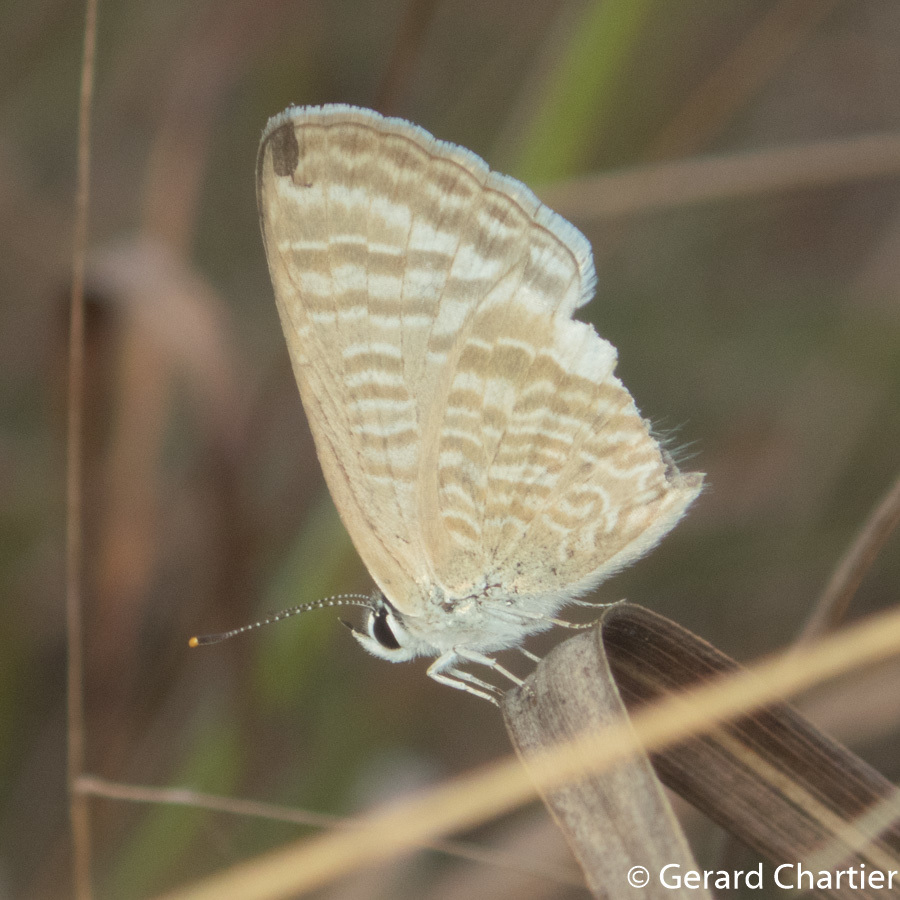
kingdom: Animalia
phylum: Arthropoda
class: Insecta
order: Lepidoptera
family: Lycaenidae
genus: Lampides
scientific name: Lampides boeticus
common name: Long-tailed blue
